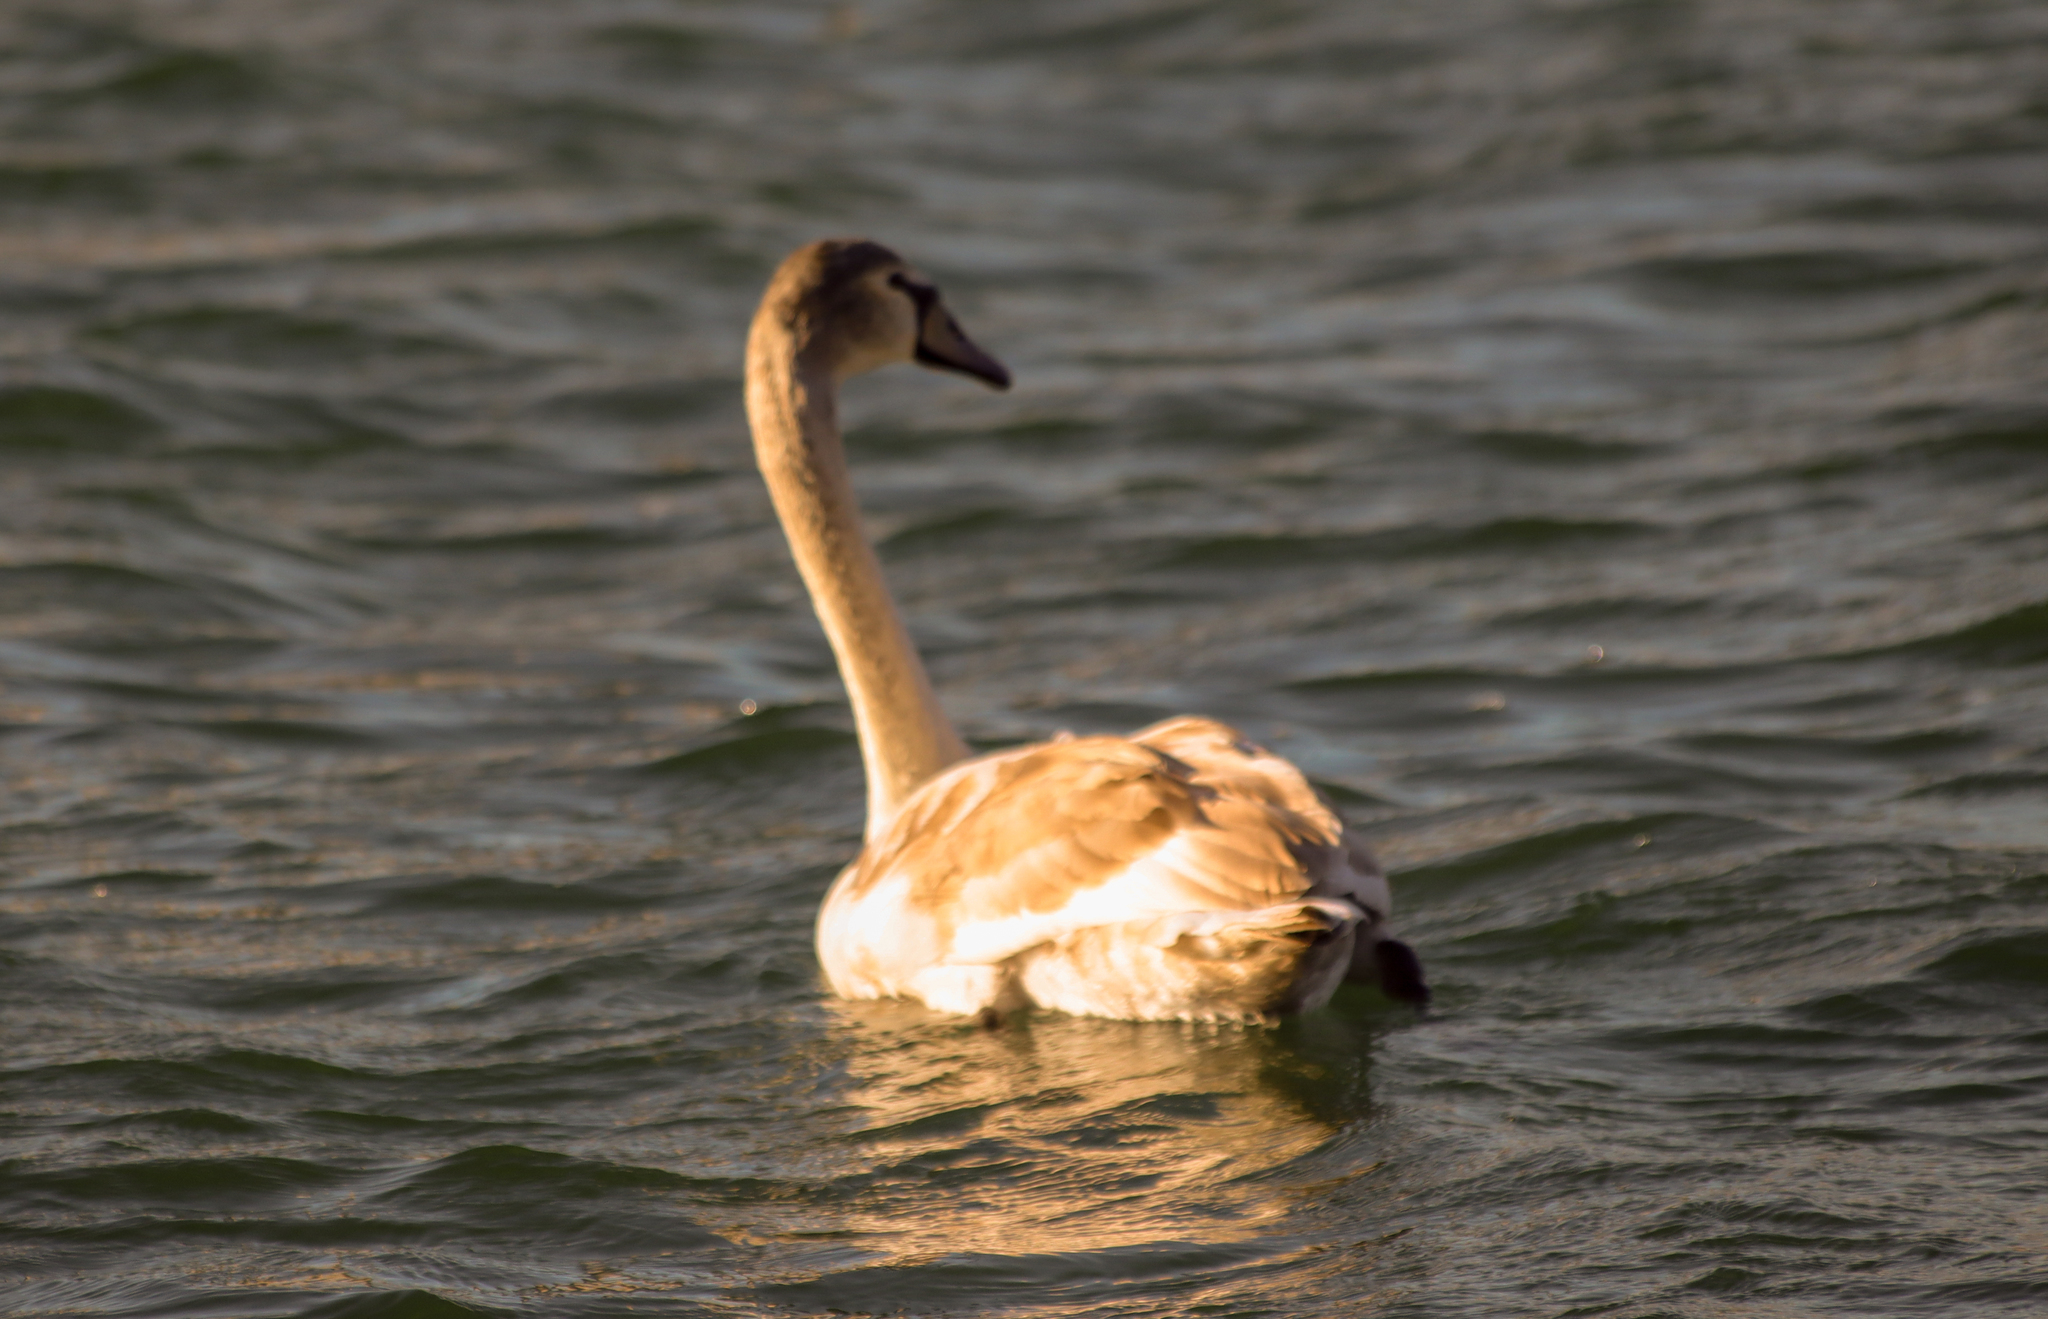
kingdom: Animalia
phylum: Chordata
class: Aves
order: Anseriformes
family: Anatidae
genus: Cygnus
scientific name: Cygnus buccinator
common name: Trumpeter swan
